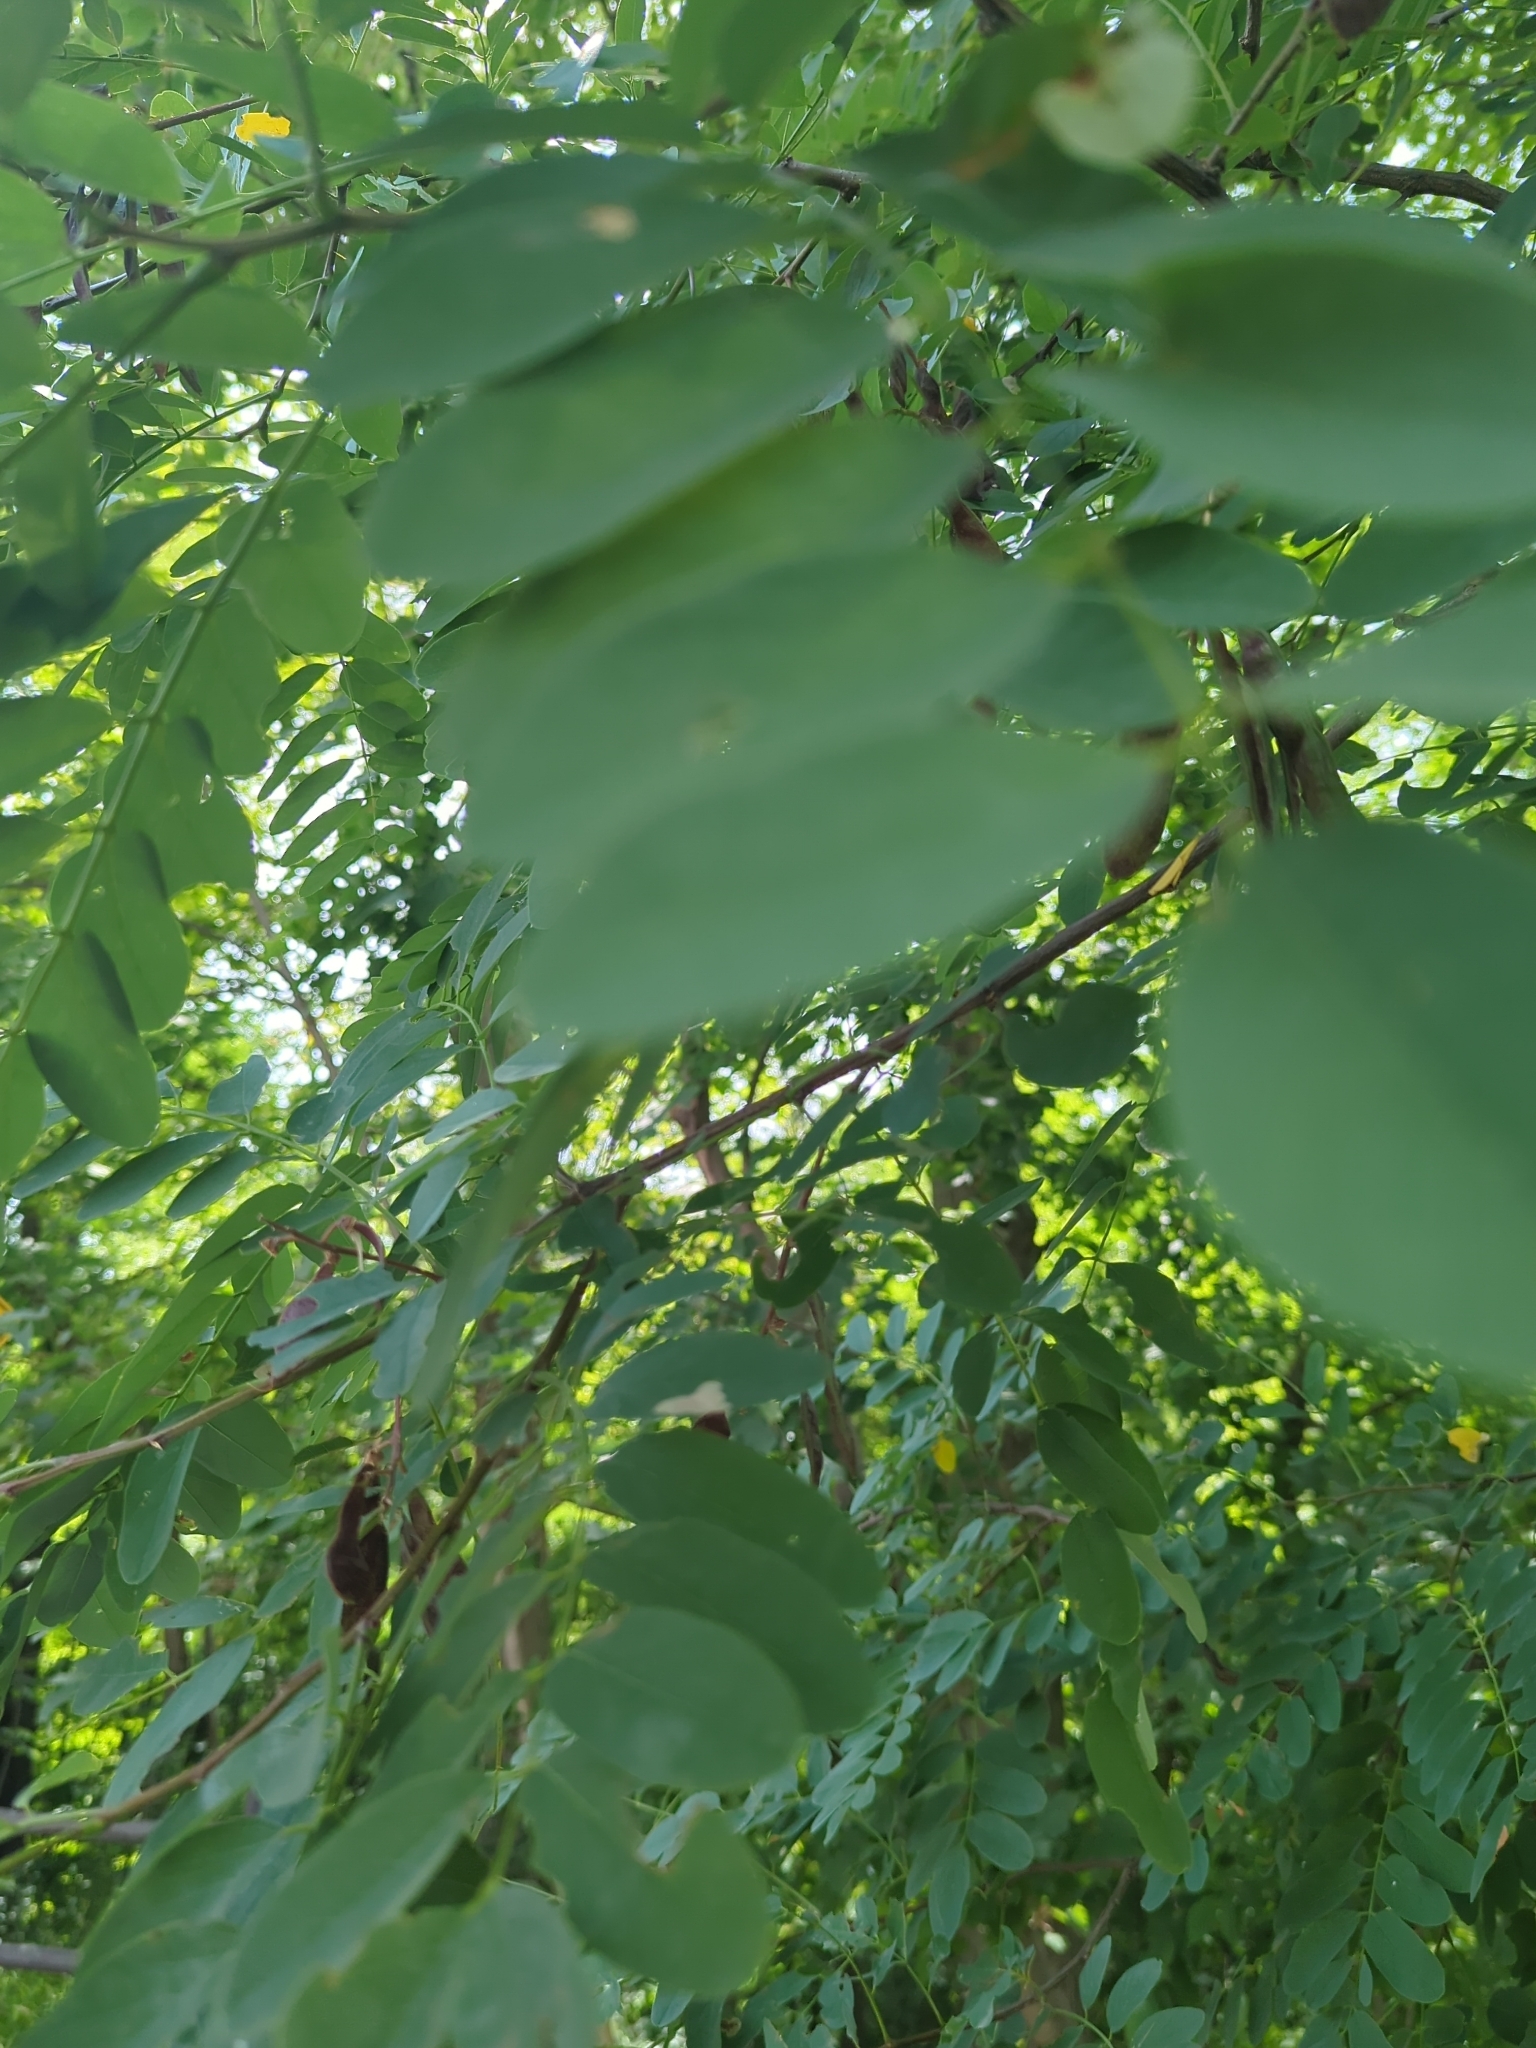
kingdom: Plantae
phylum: Tracheophyta
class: Magnoliopsida
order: Fabales
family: Fabaceae
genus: Robinia
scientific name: Robinia pseudoacacia
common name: Black locust
